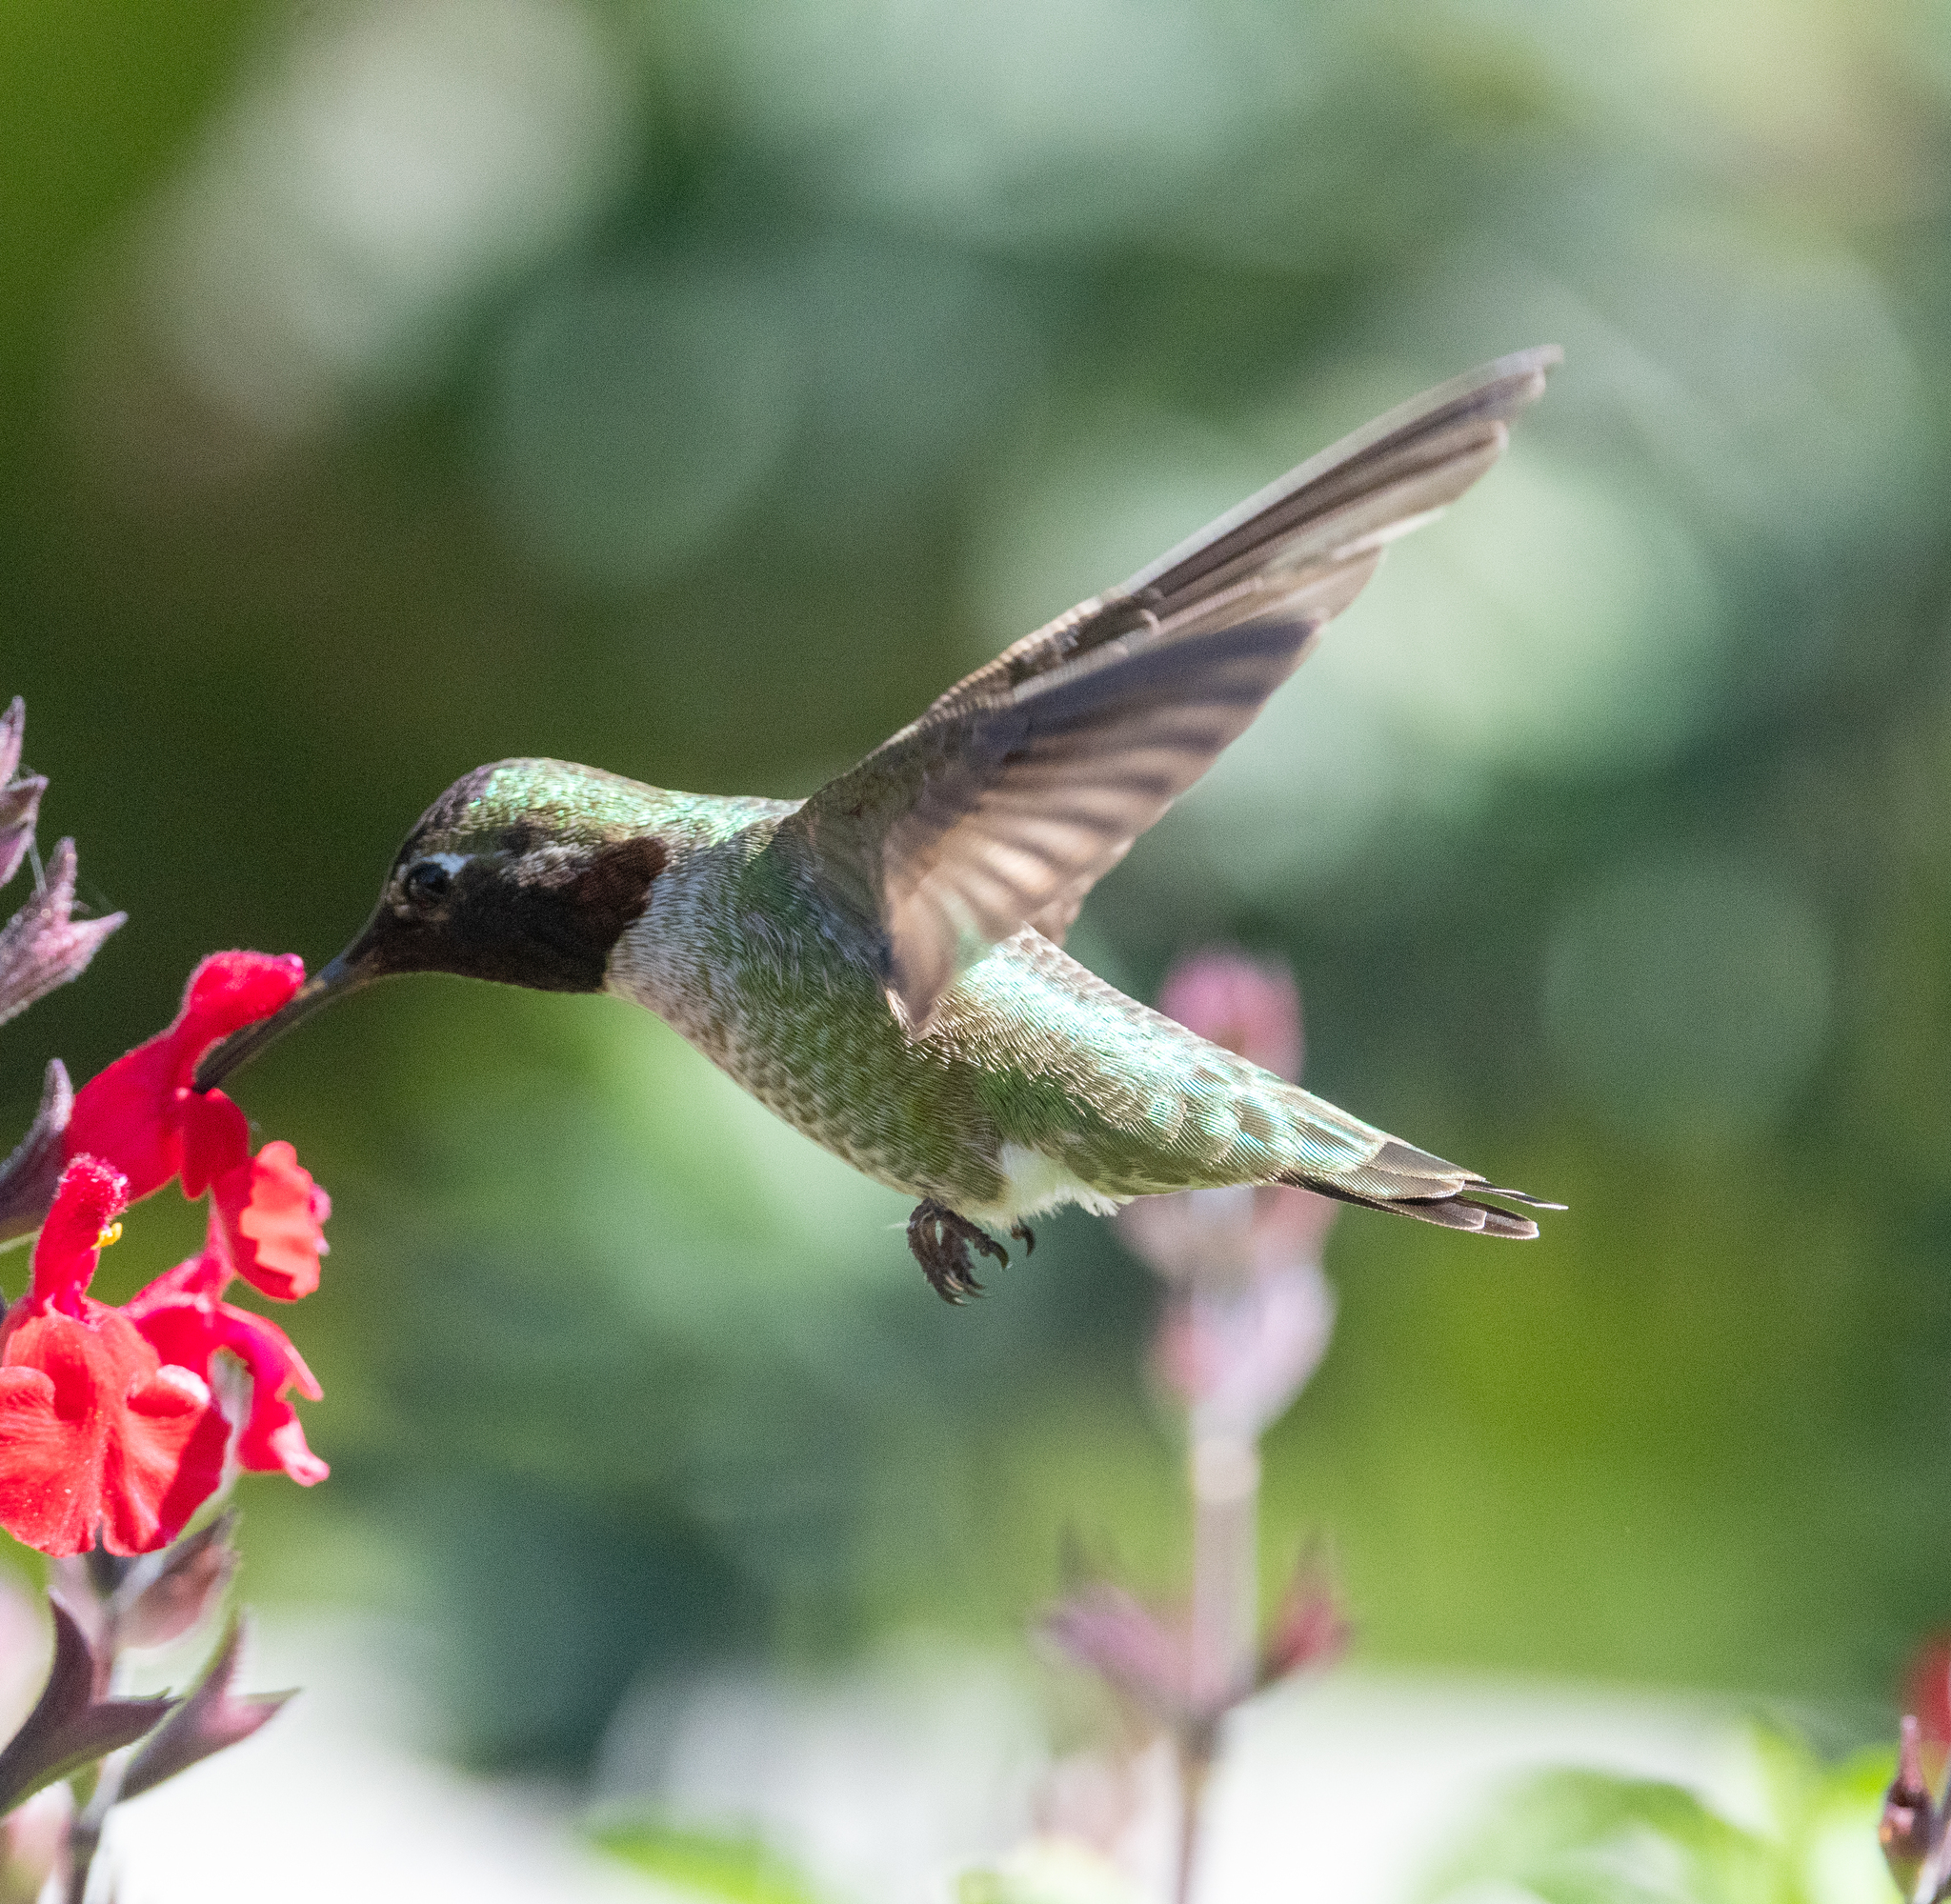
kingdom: Animalia
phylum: Chordata
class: Aves
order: Apodiformes
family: Trochilidae
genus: Calypte
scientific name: Calypte anna
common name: Anna's hummingbird
